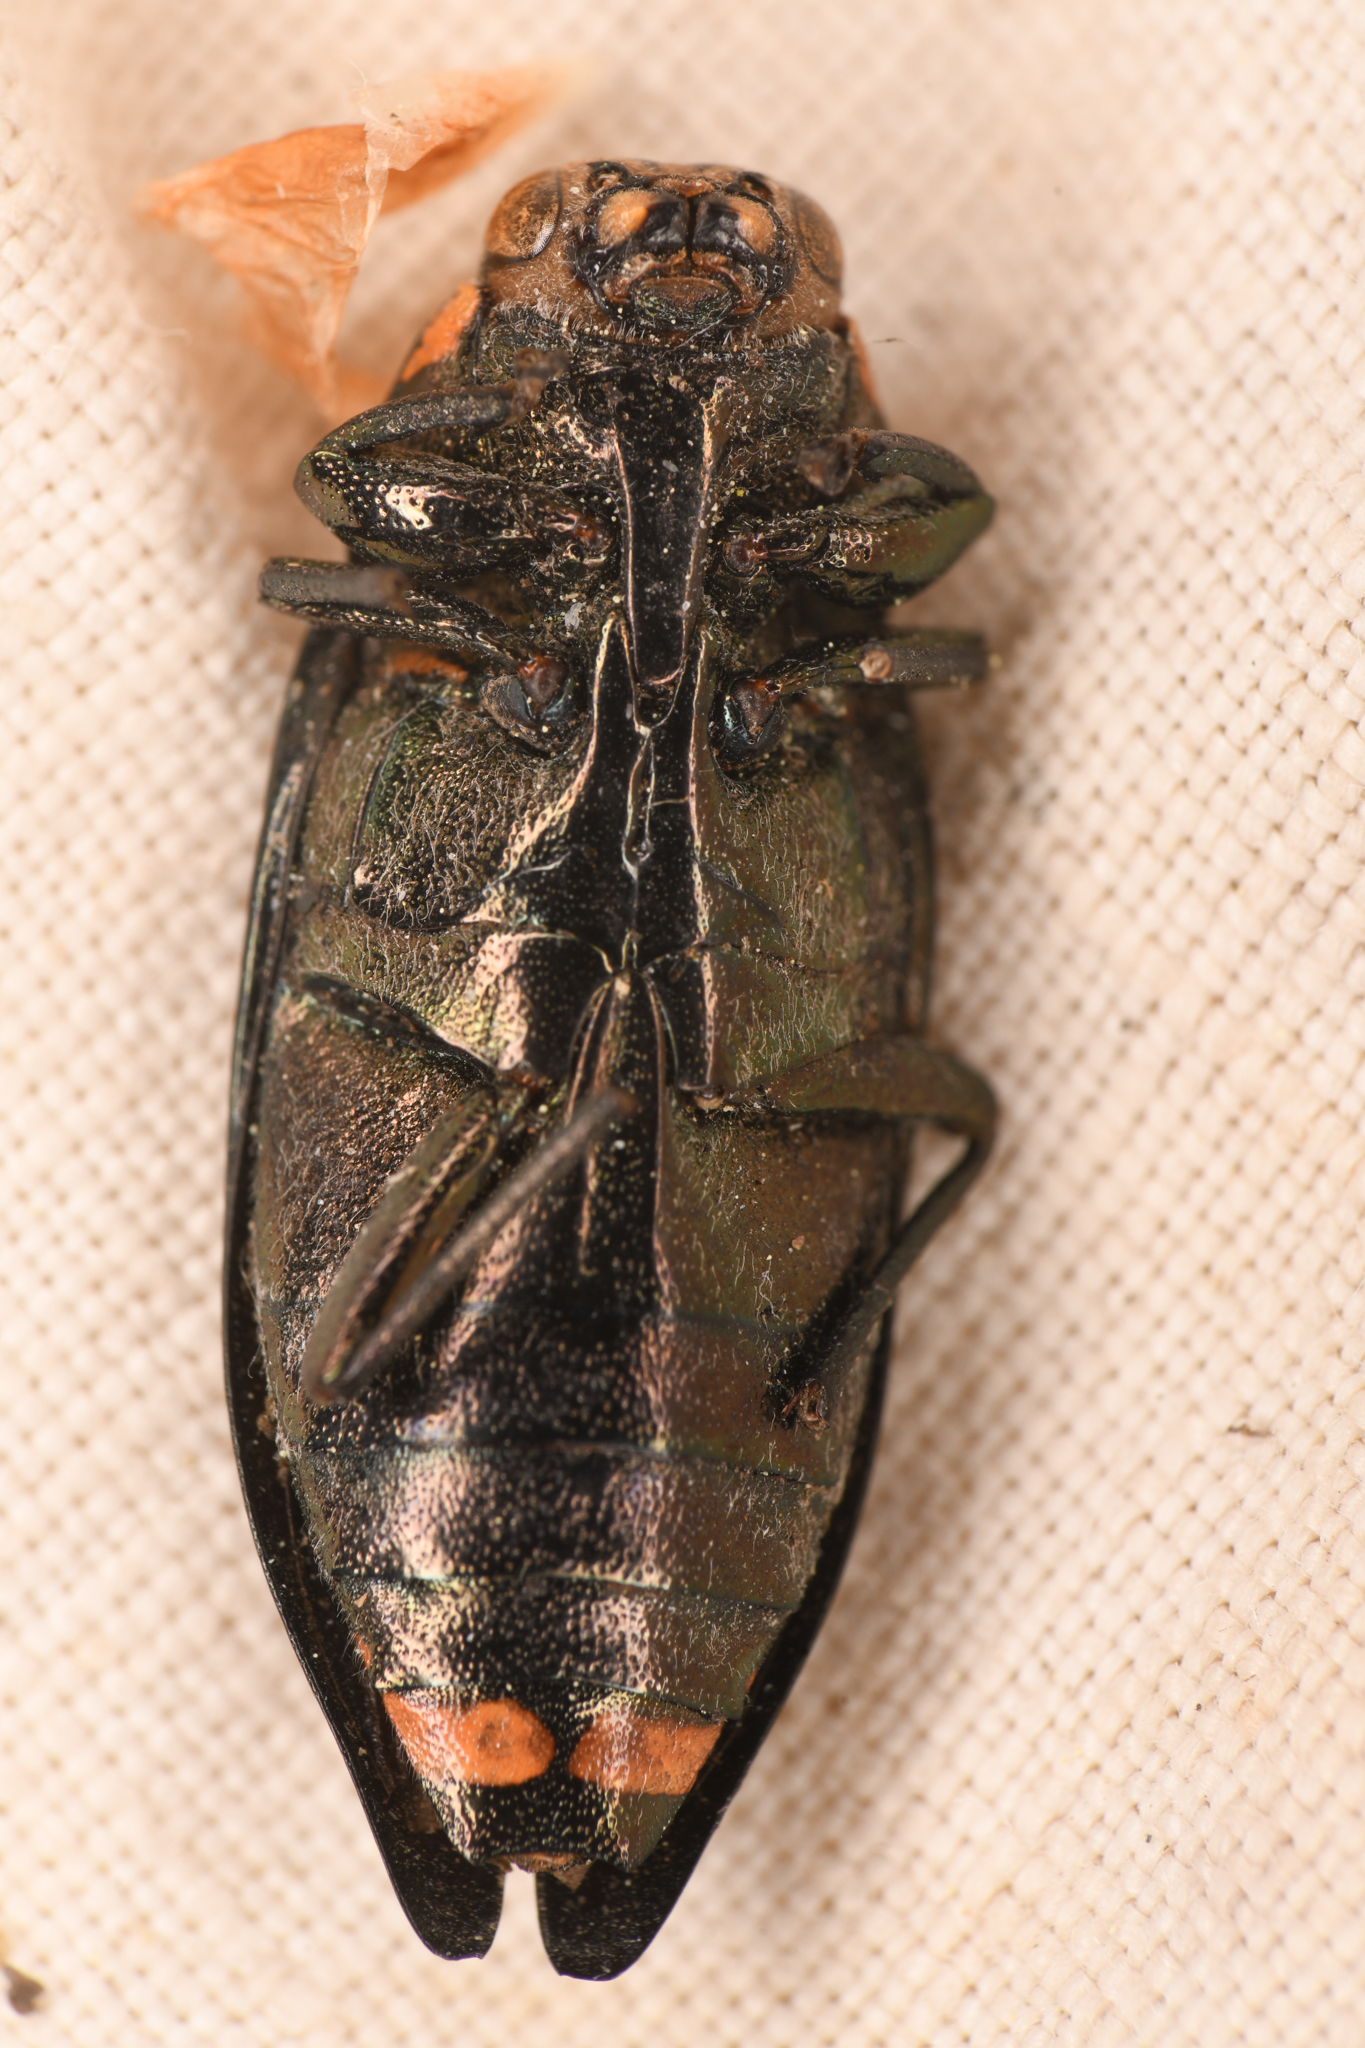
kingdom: Animalia
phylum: Arthropoda
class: Insecta
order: Coleoptera
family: Buprestidae
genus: Buprestis
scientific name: Buprestis lyrata
